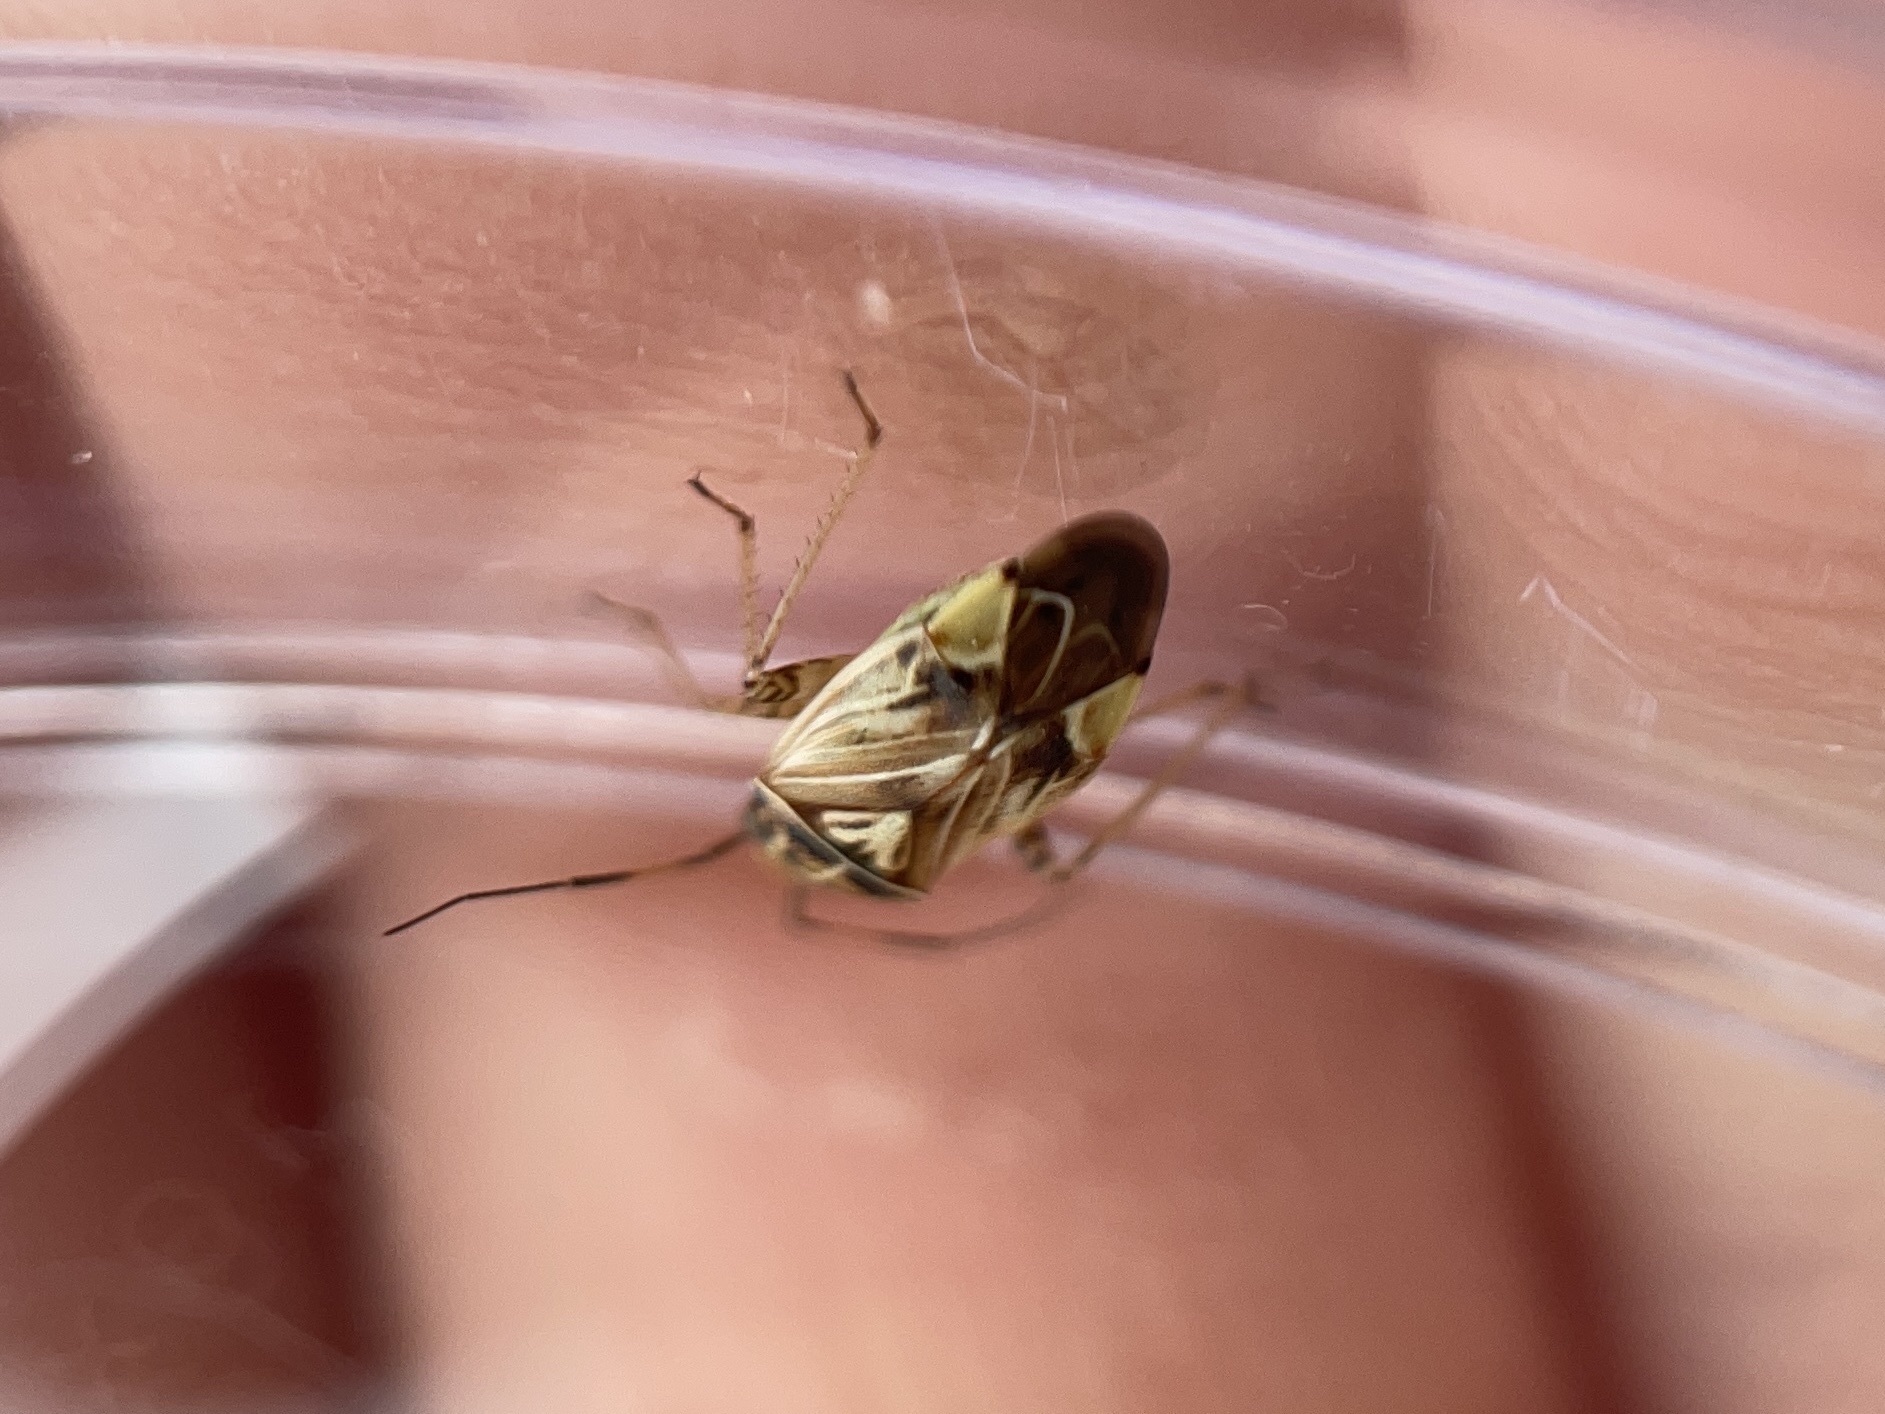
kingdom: Animalia
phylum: Arthropoda
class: Insecta
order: Hemiptera
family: Miridae
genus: Lygus
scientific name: Lygus lineolaris
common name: North american tarnished plant bug
